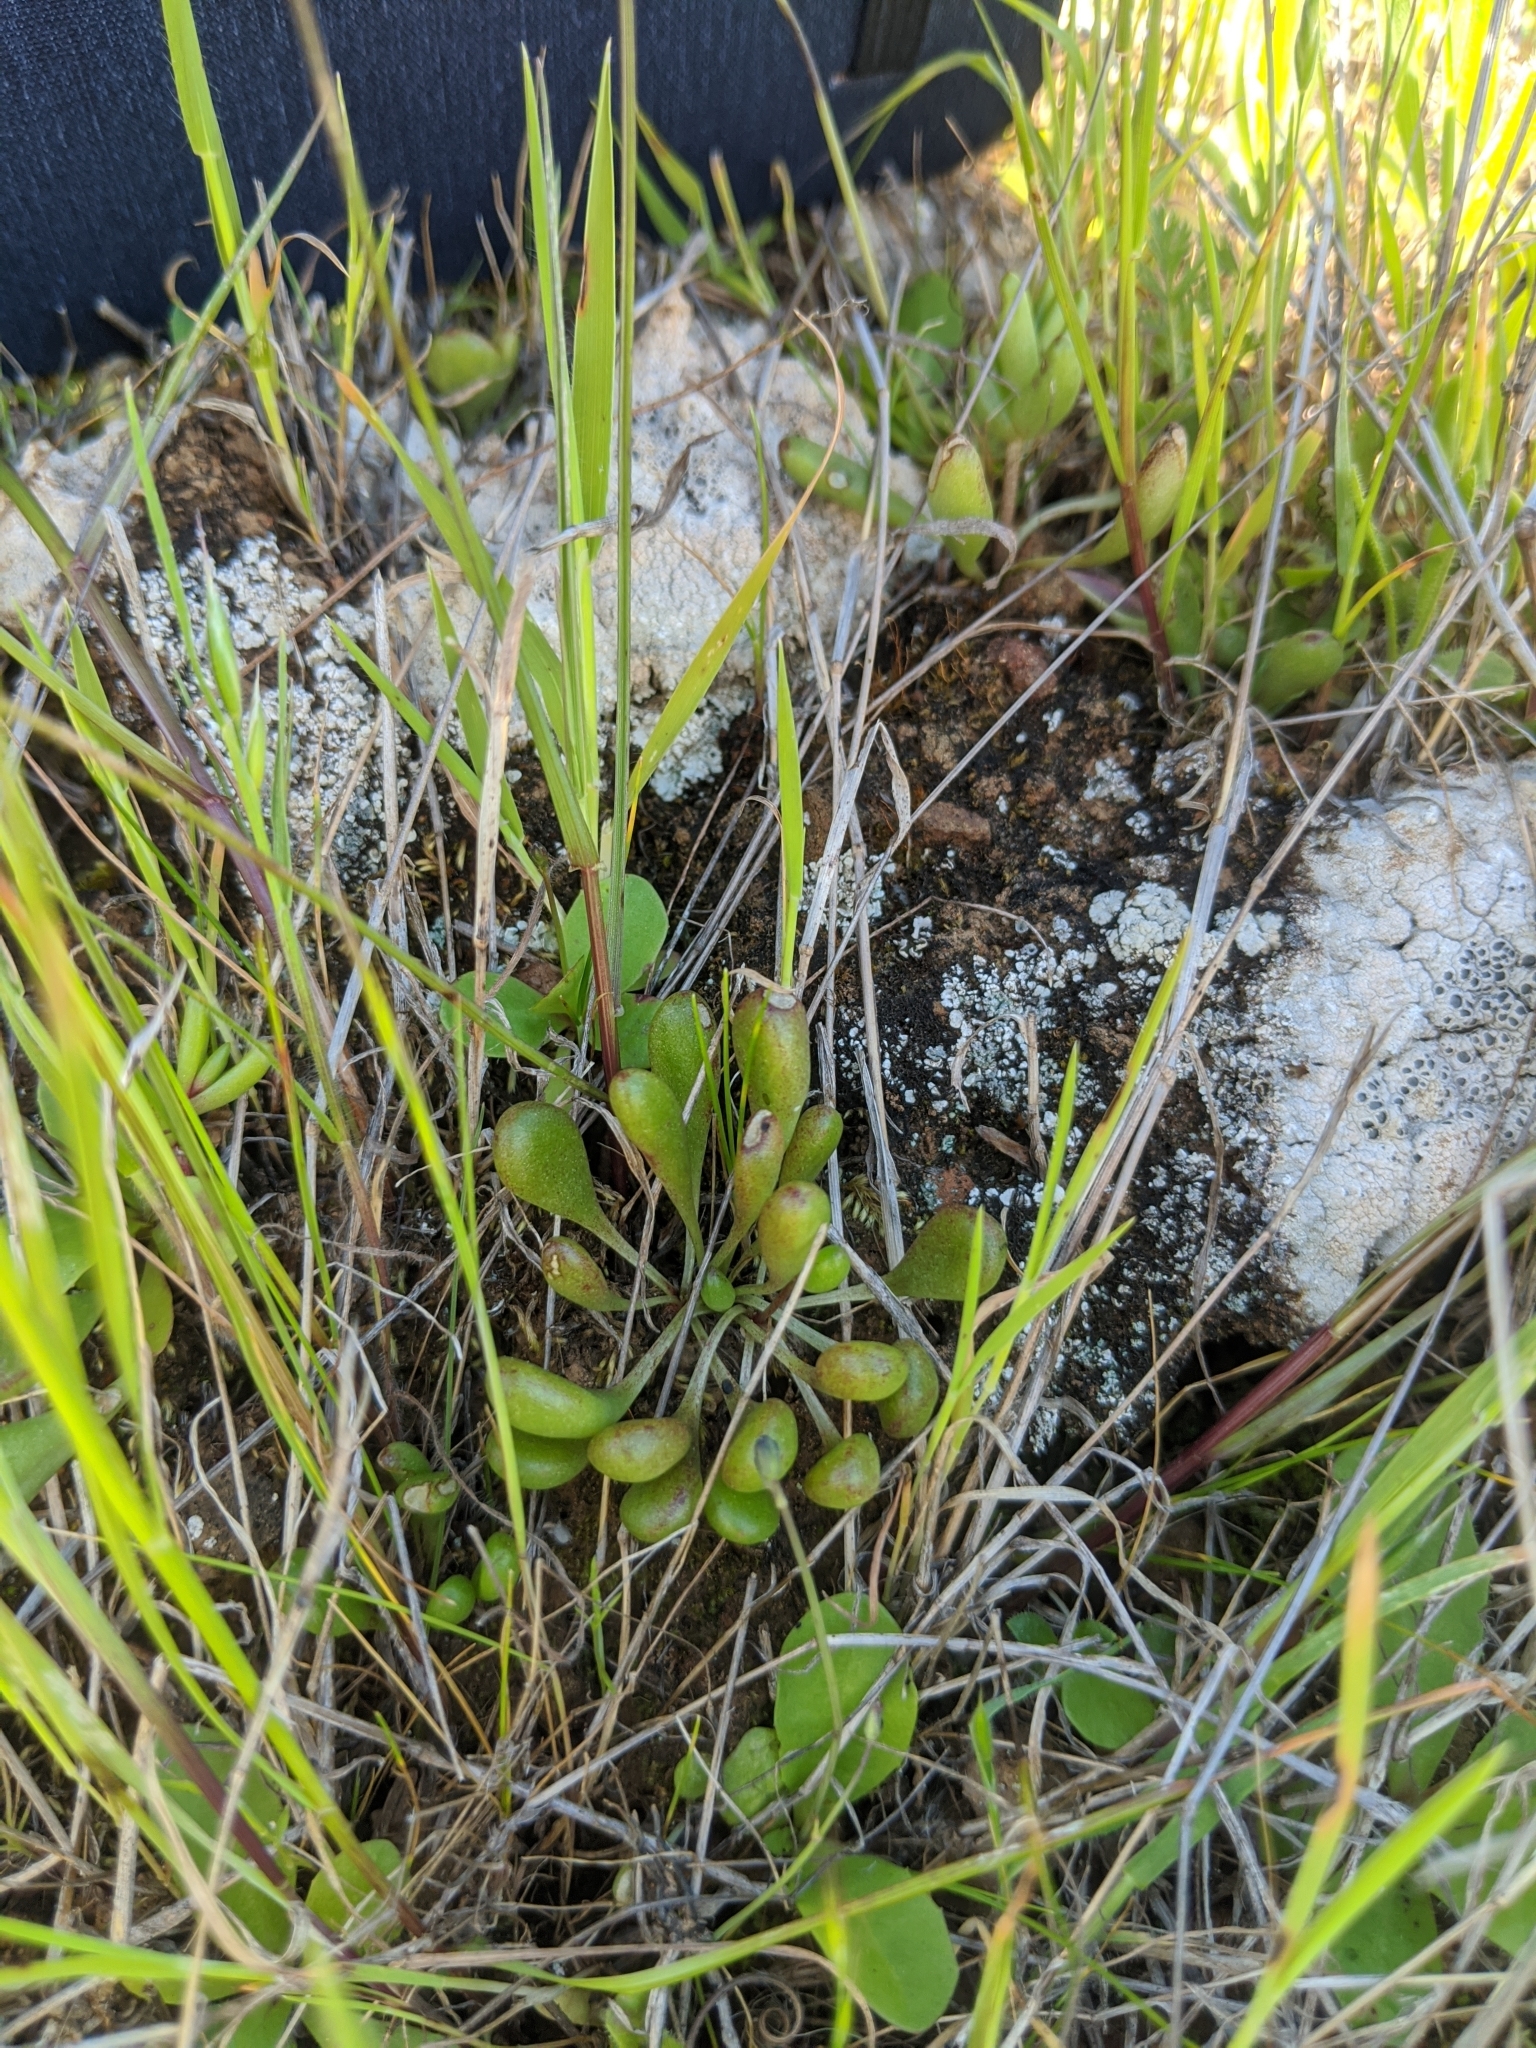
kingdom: Plantae
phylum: Tracheophyta
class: Magnoliopsida
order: Saxifragales
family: Crassulaceae
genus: Dudleya
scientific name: Dudleya blochmaniae
